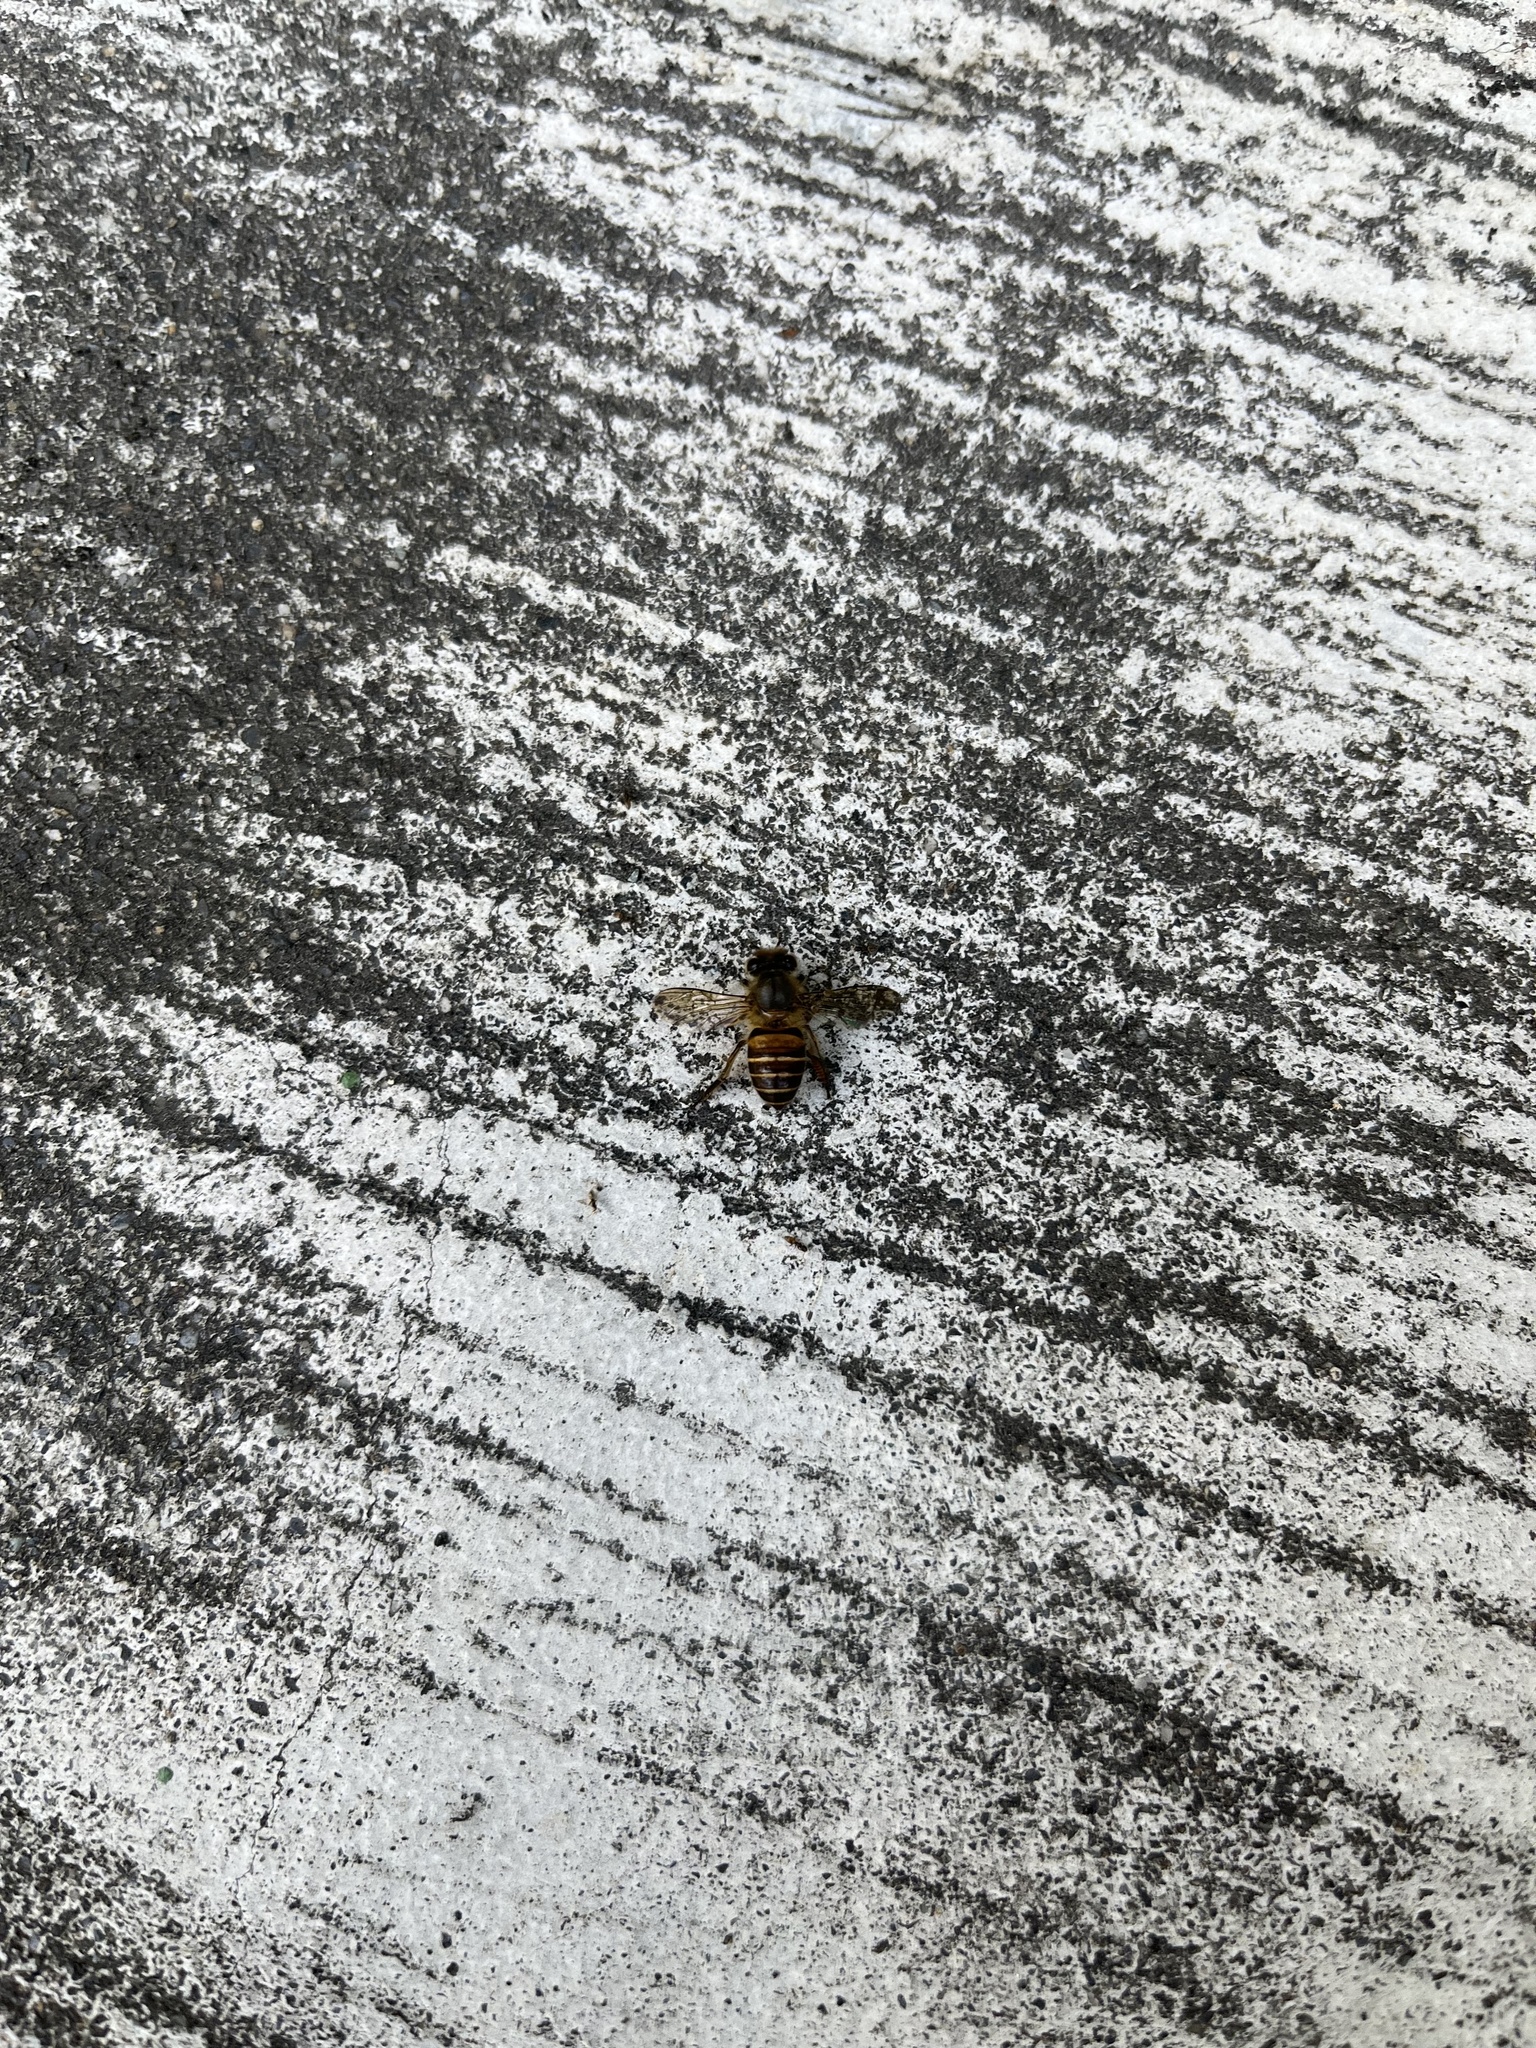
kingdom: Animalia
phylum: Arthropoda
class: Insecta
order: Hymenoptera
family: Apidae
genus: Apis
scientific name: Apis cerana
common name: Honey bee
